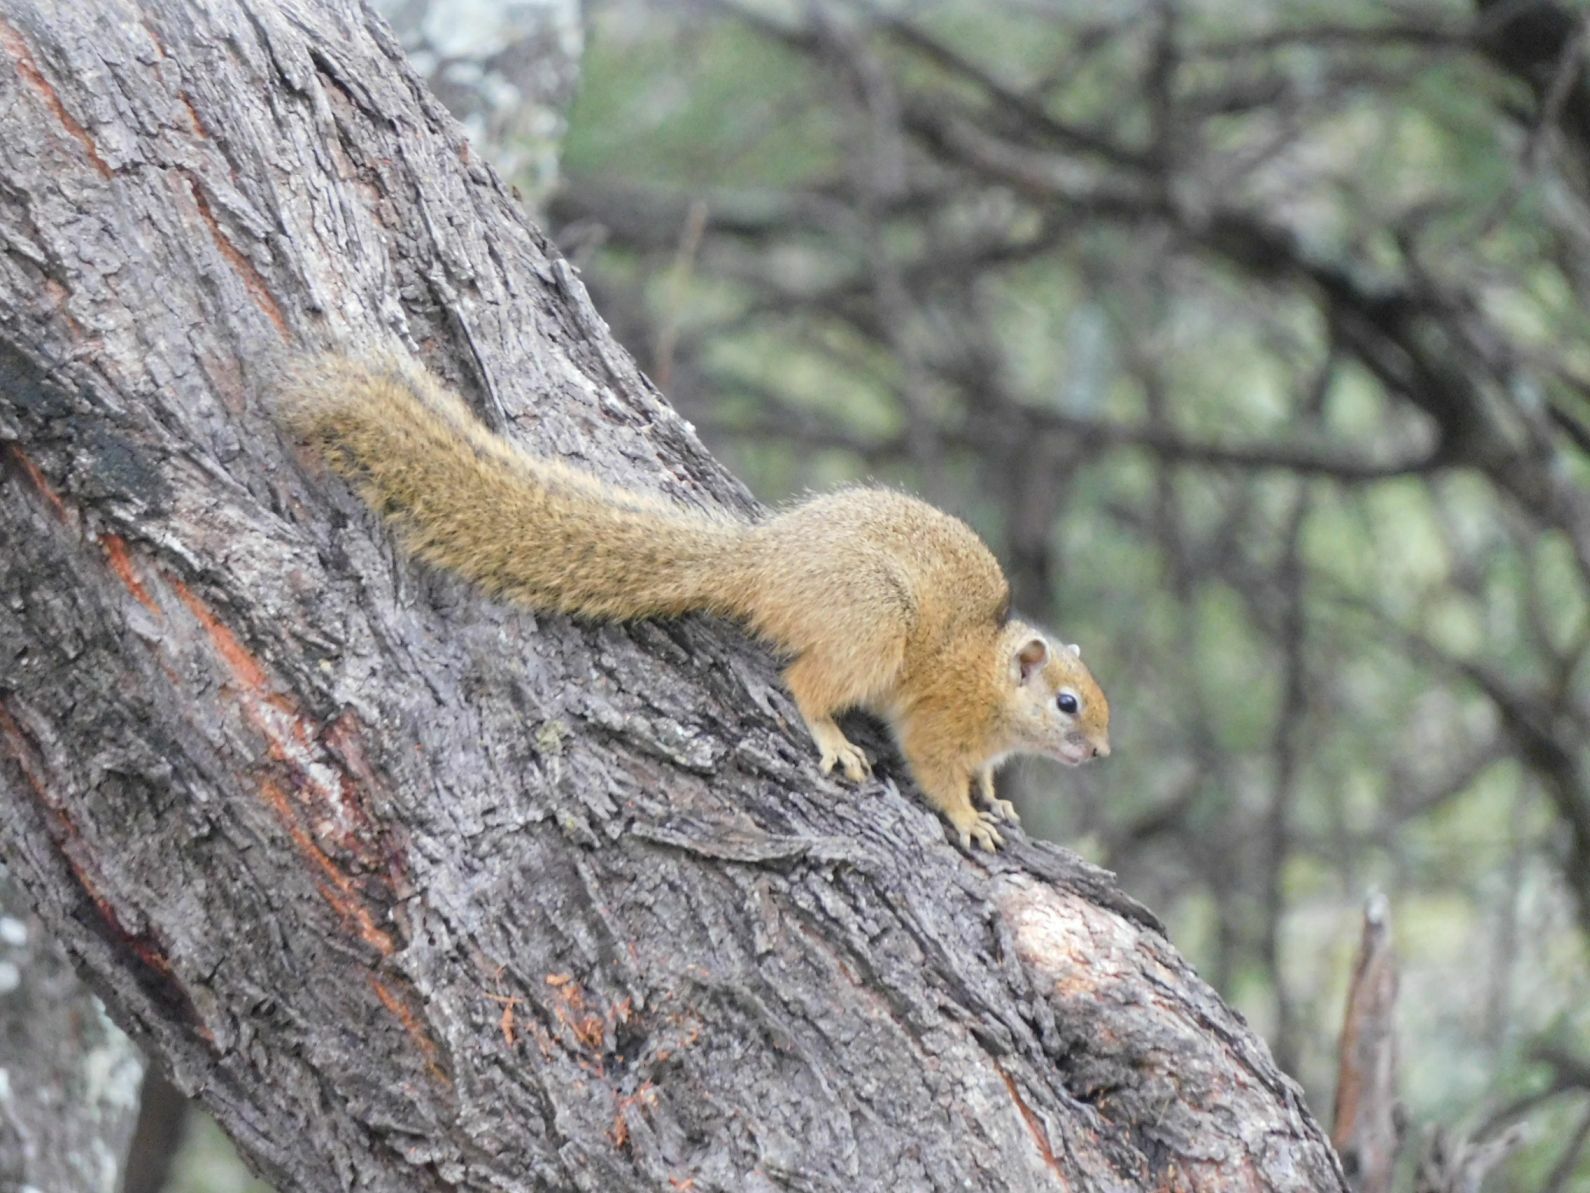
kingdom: Animalia
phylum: Chordata
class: Mammalia
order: Rodentia
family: Sciuridae
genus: Paraxerus
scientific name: Paraxerus cepapi
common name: Smith's bush squirrel
